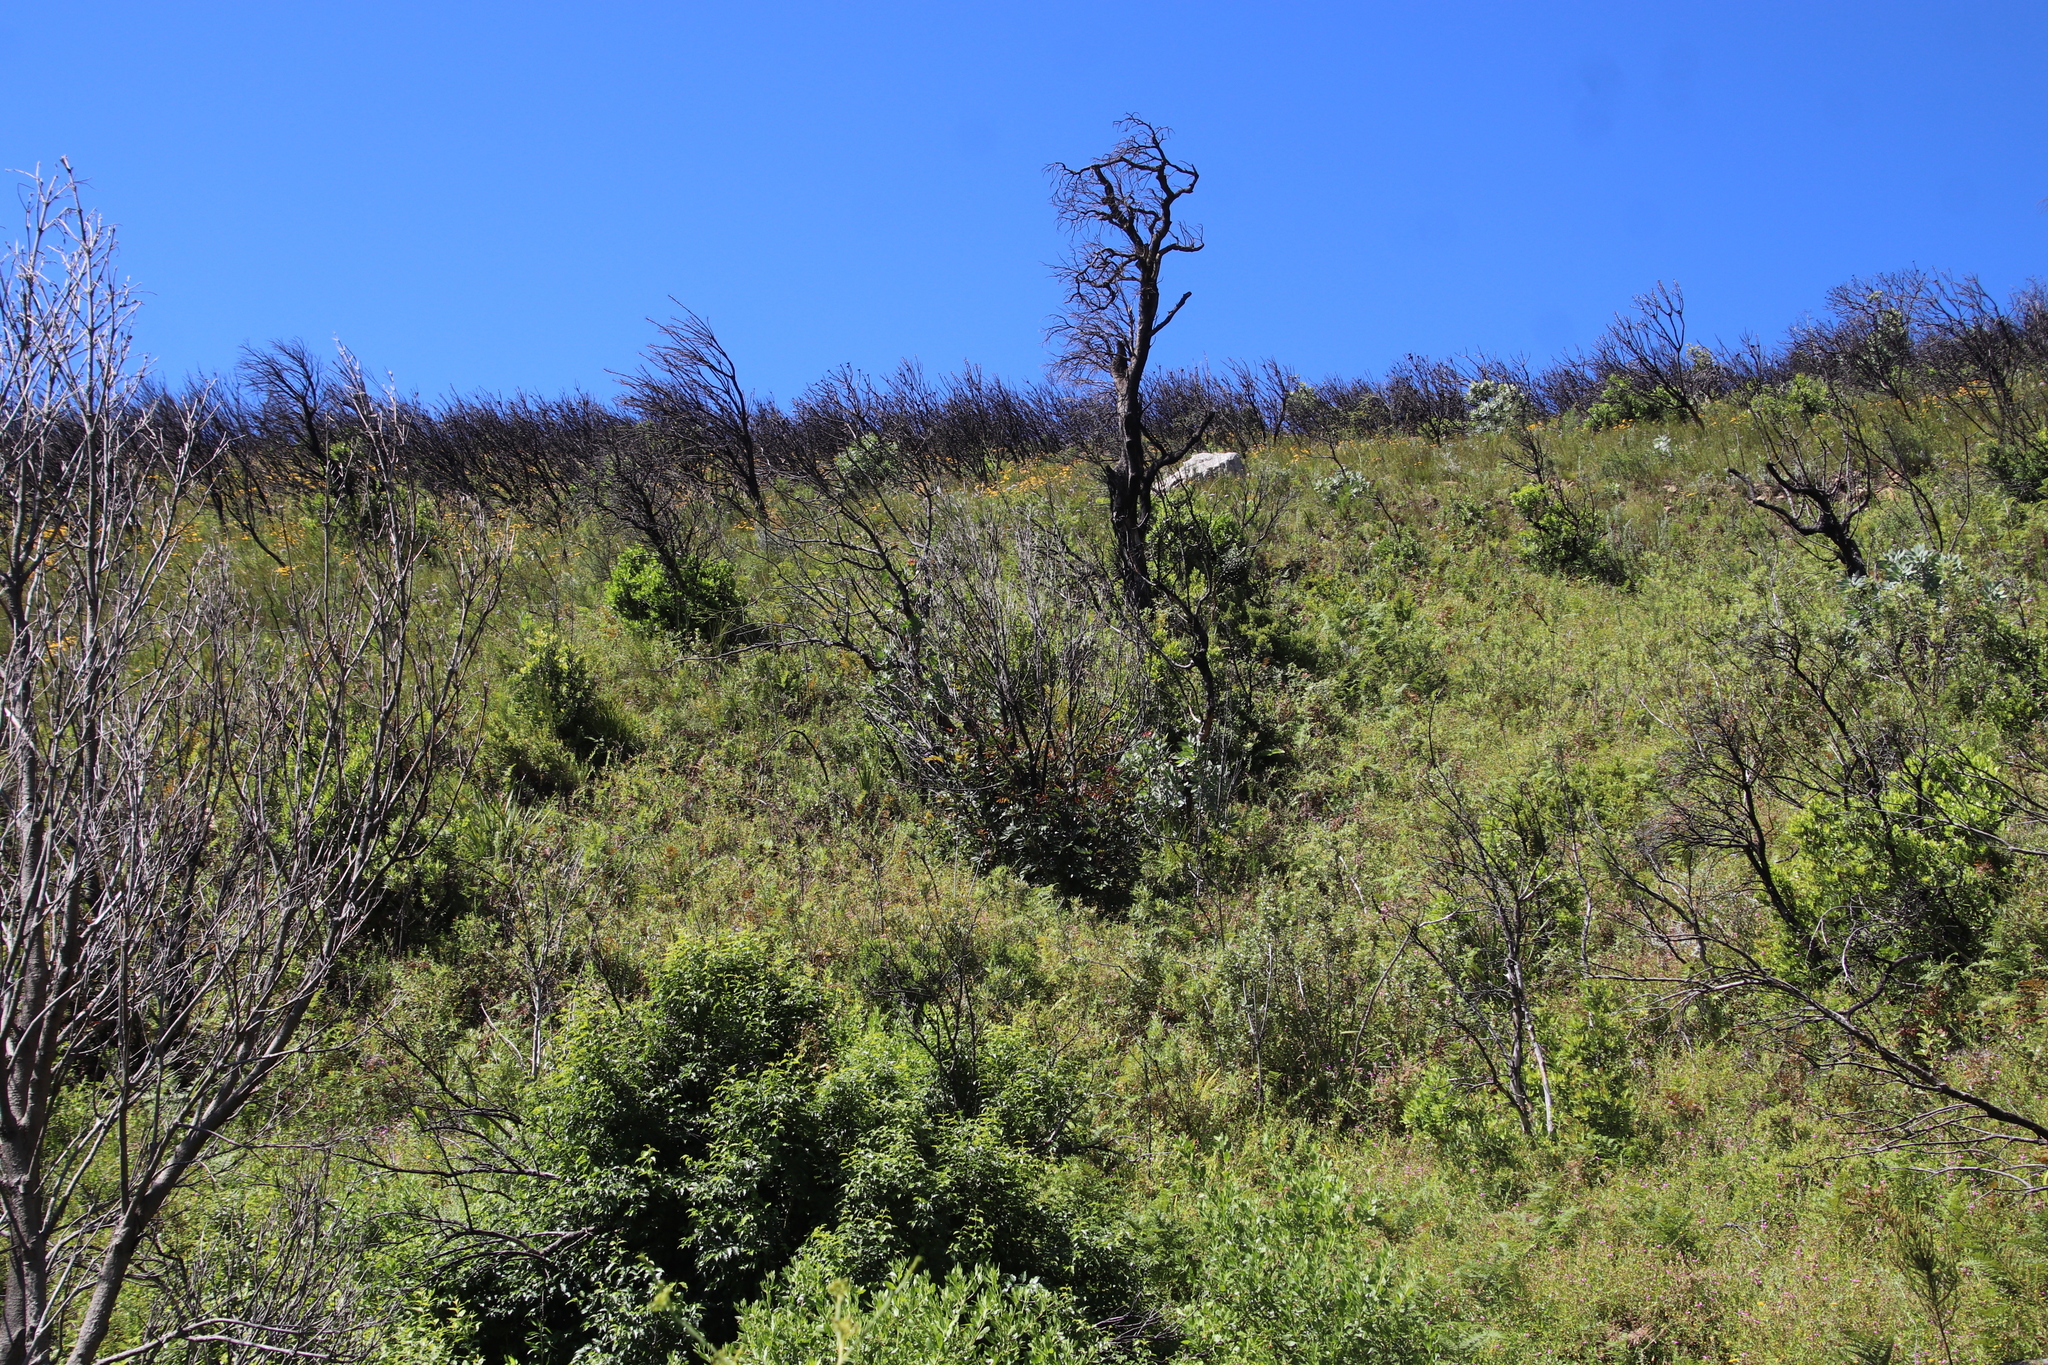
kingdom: Plantae
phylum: Tracheophyta
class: Magnoliopsida
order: Celastrales
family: Celastraceae
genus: Elaeodendron
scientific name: Elaeodendron schinoides
